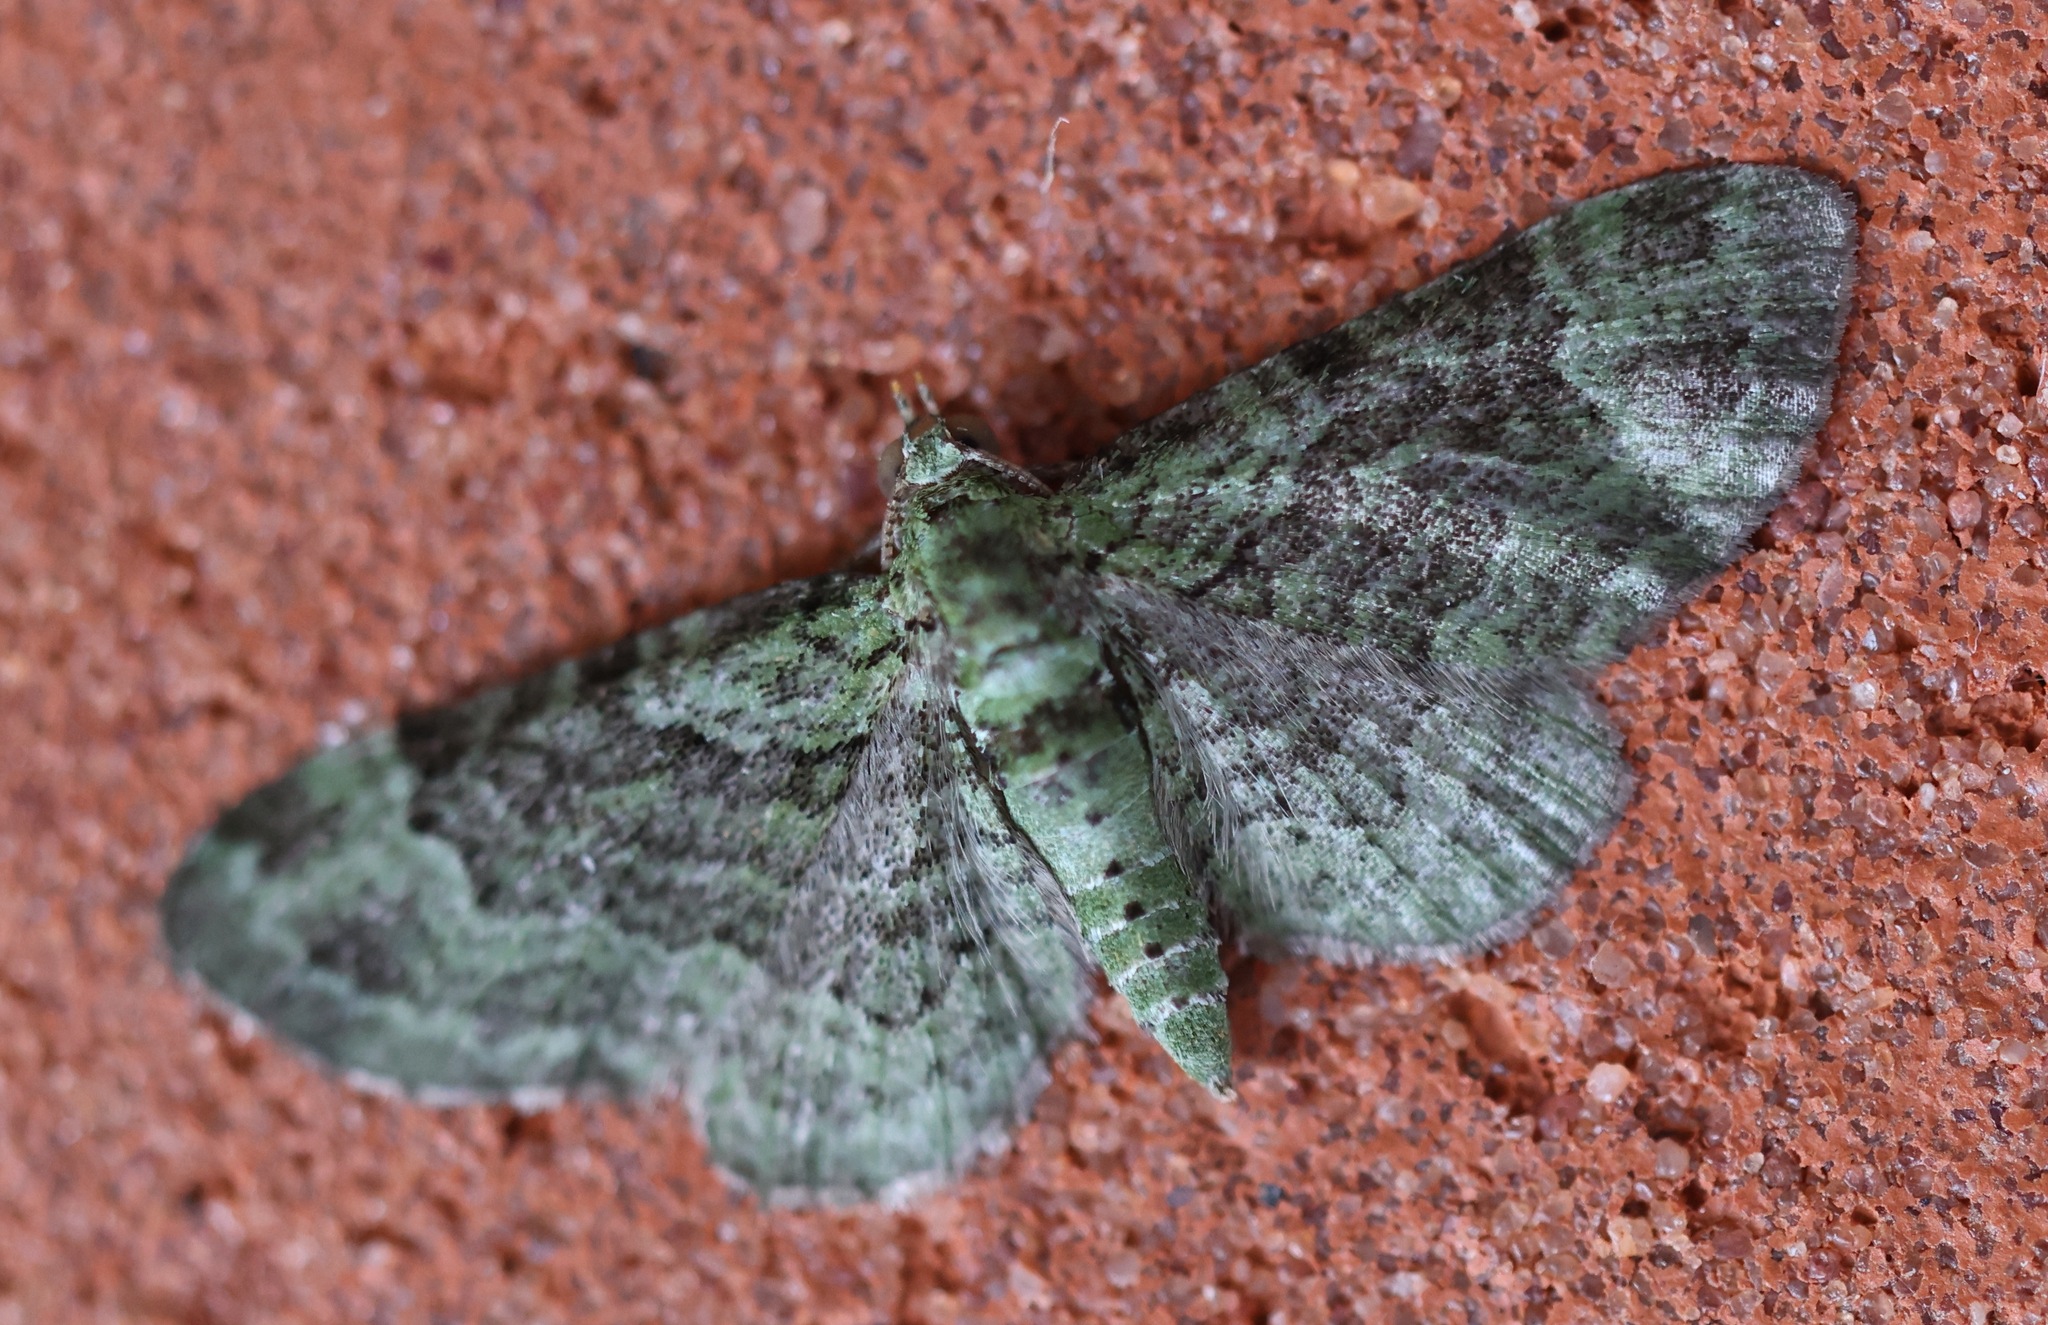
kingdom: Animalia
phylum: Arthropoda
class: Insecta
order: Lepidoptera
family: Geometridae
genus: Pasiphila
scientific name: Pasiphila rectangulata
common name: Green pug
